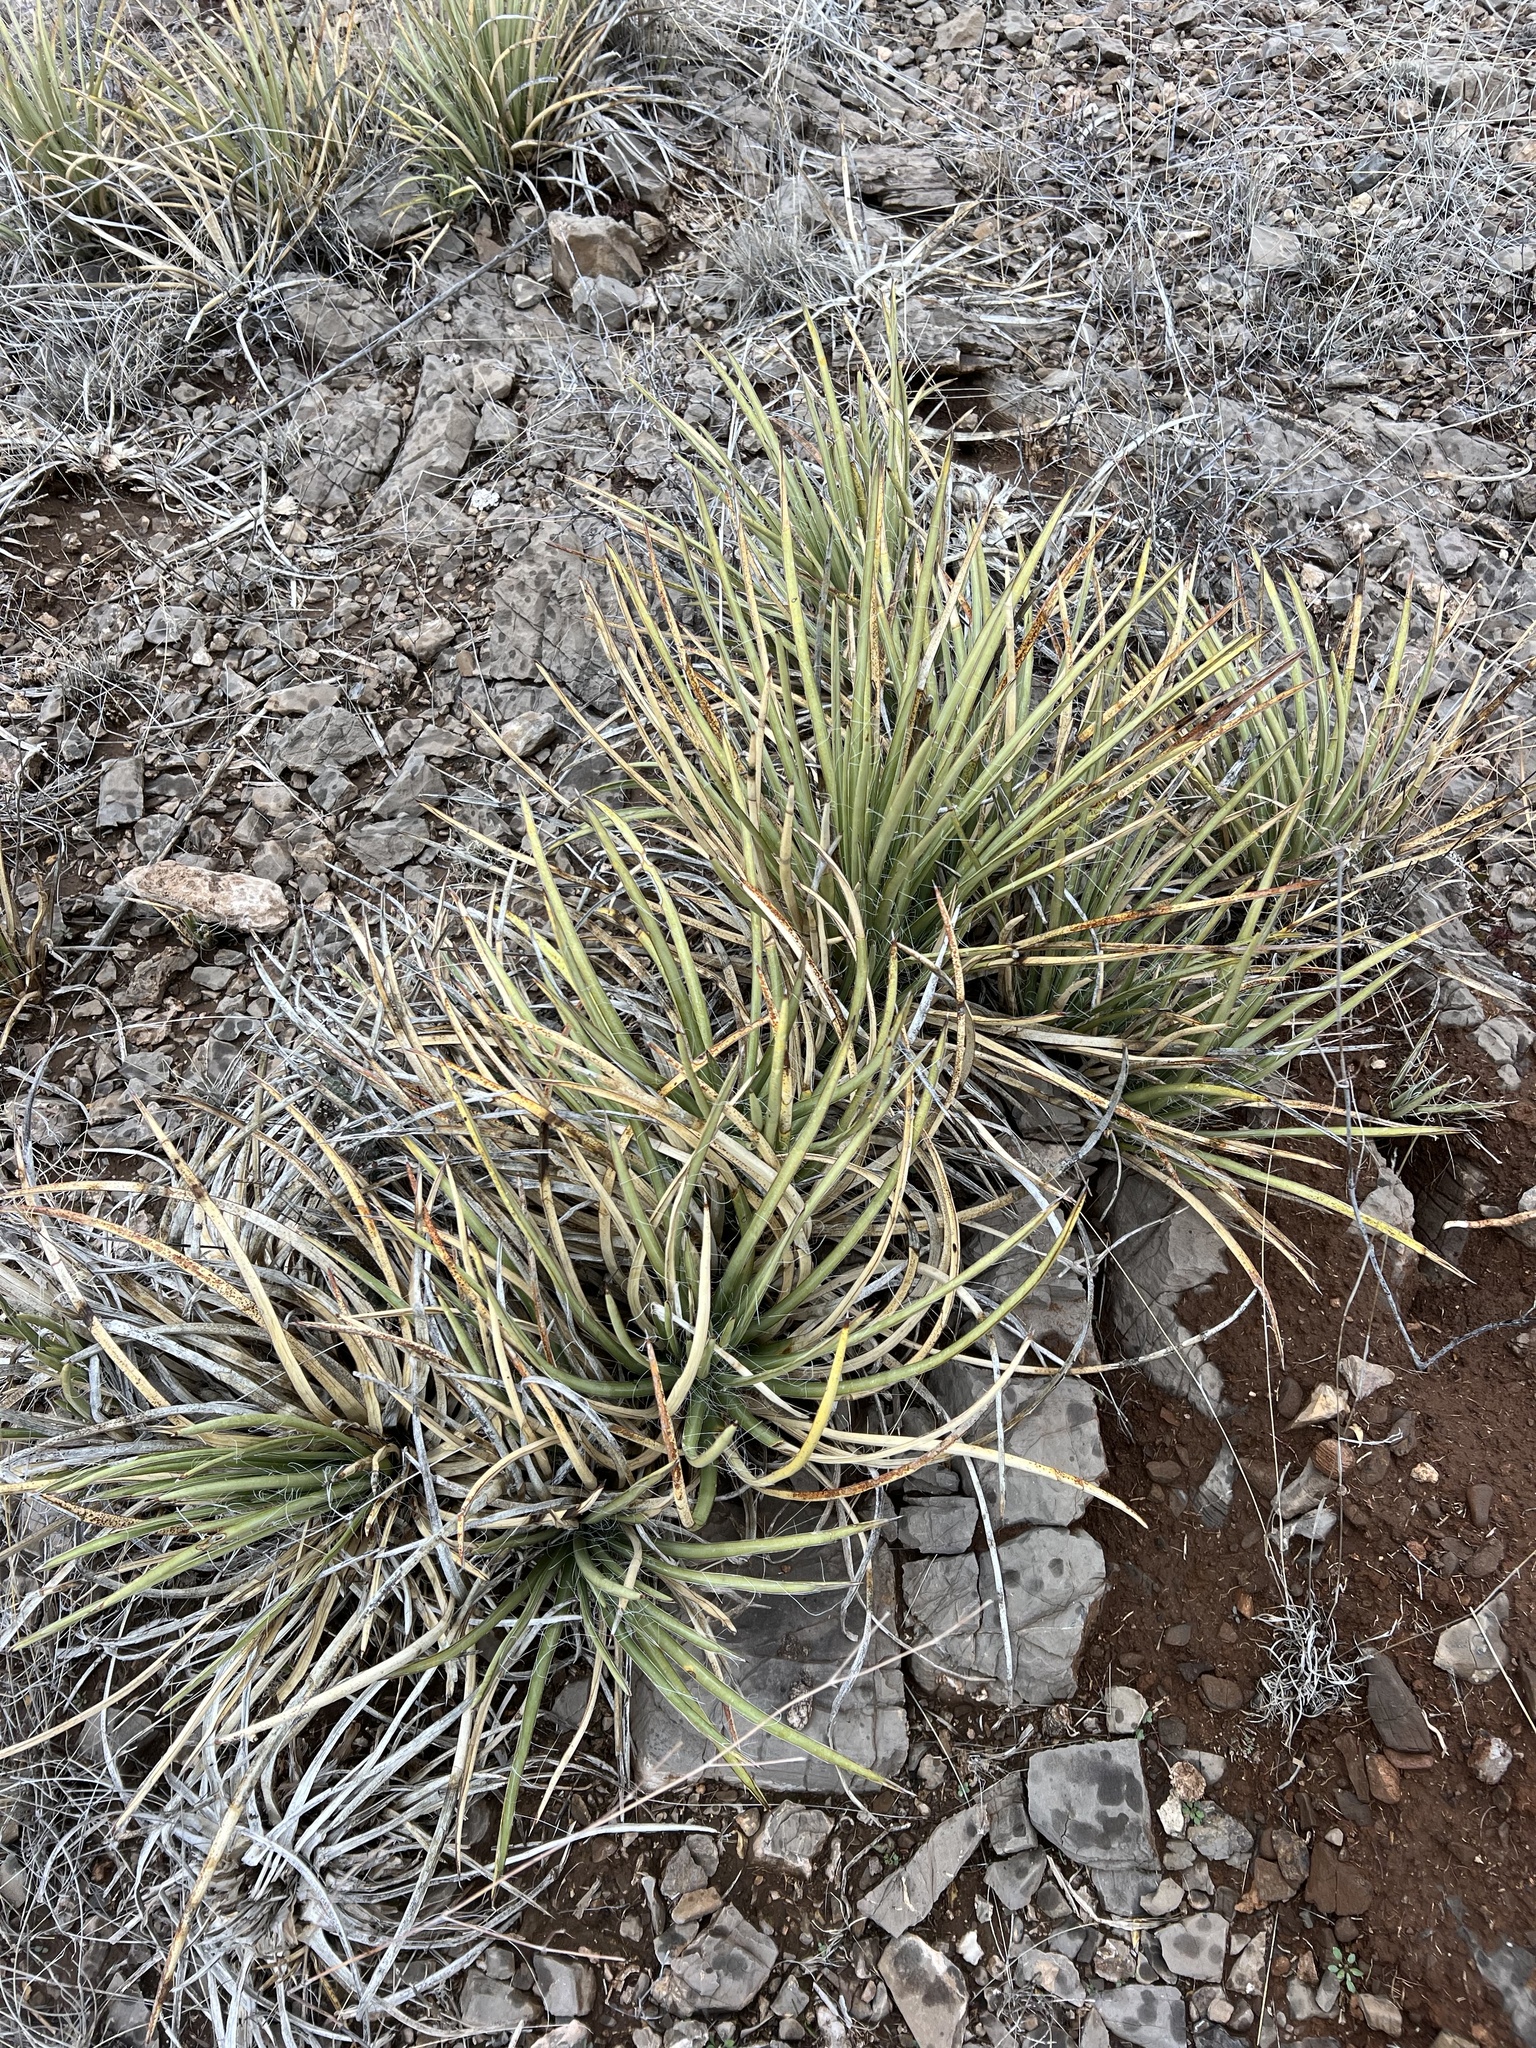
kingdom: Plantae
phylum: Tracheophyta
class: Liliopsida
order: Asparagales
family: Asparagaceae
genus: Agave
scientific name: Agave schottii
